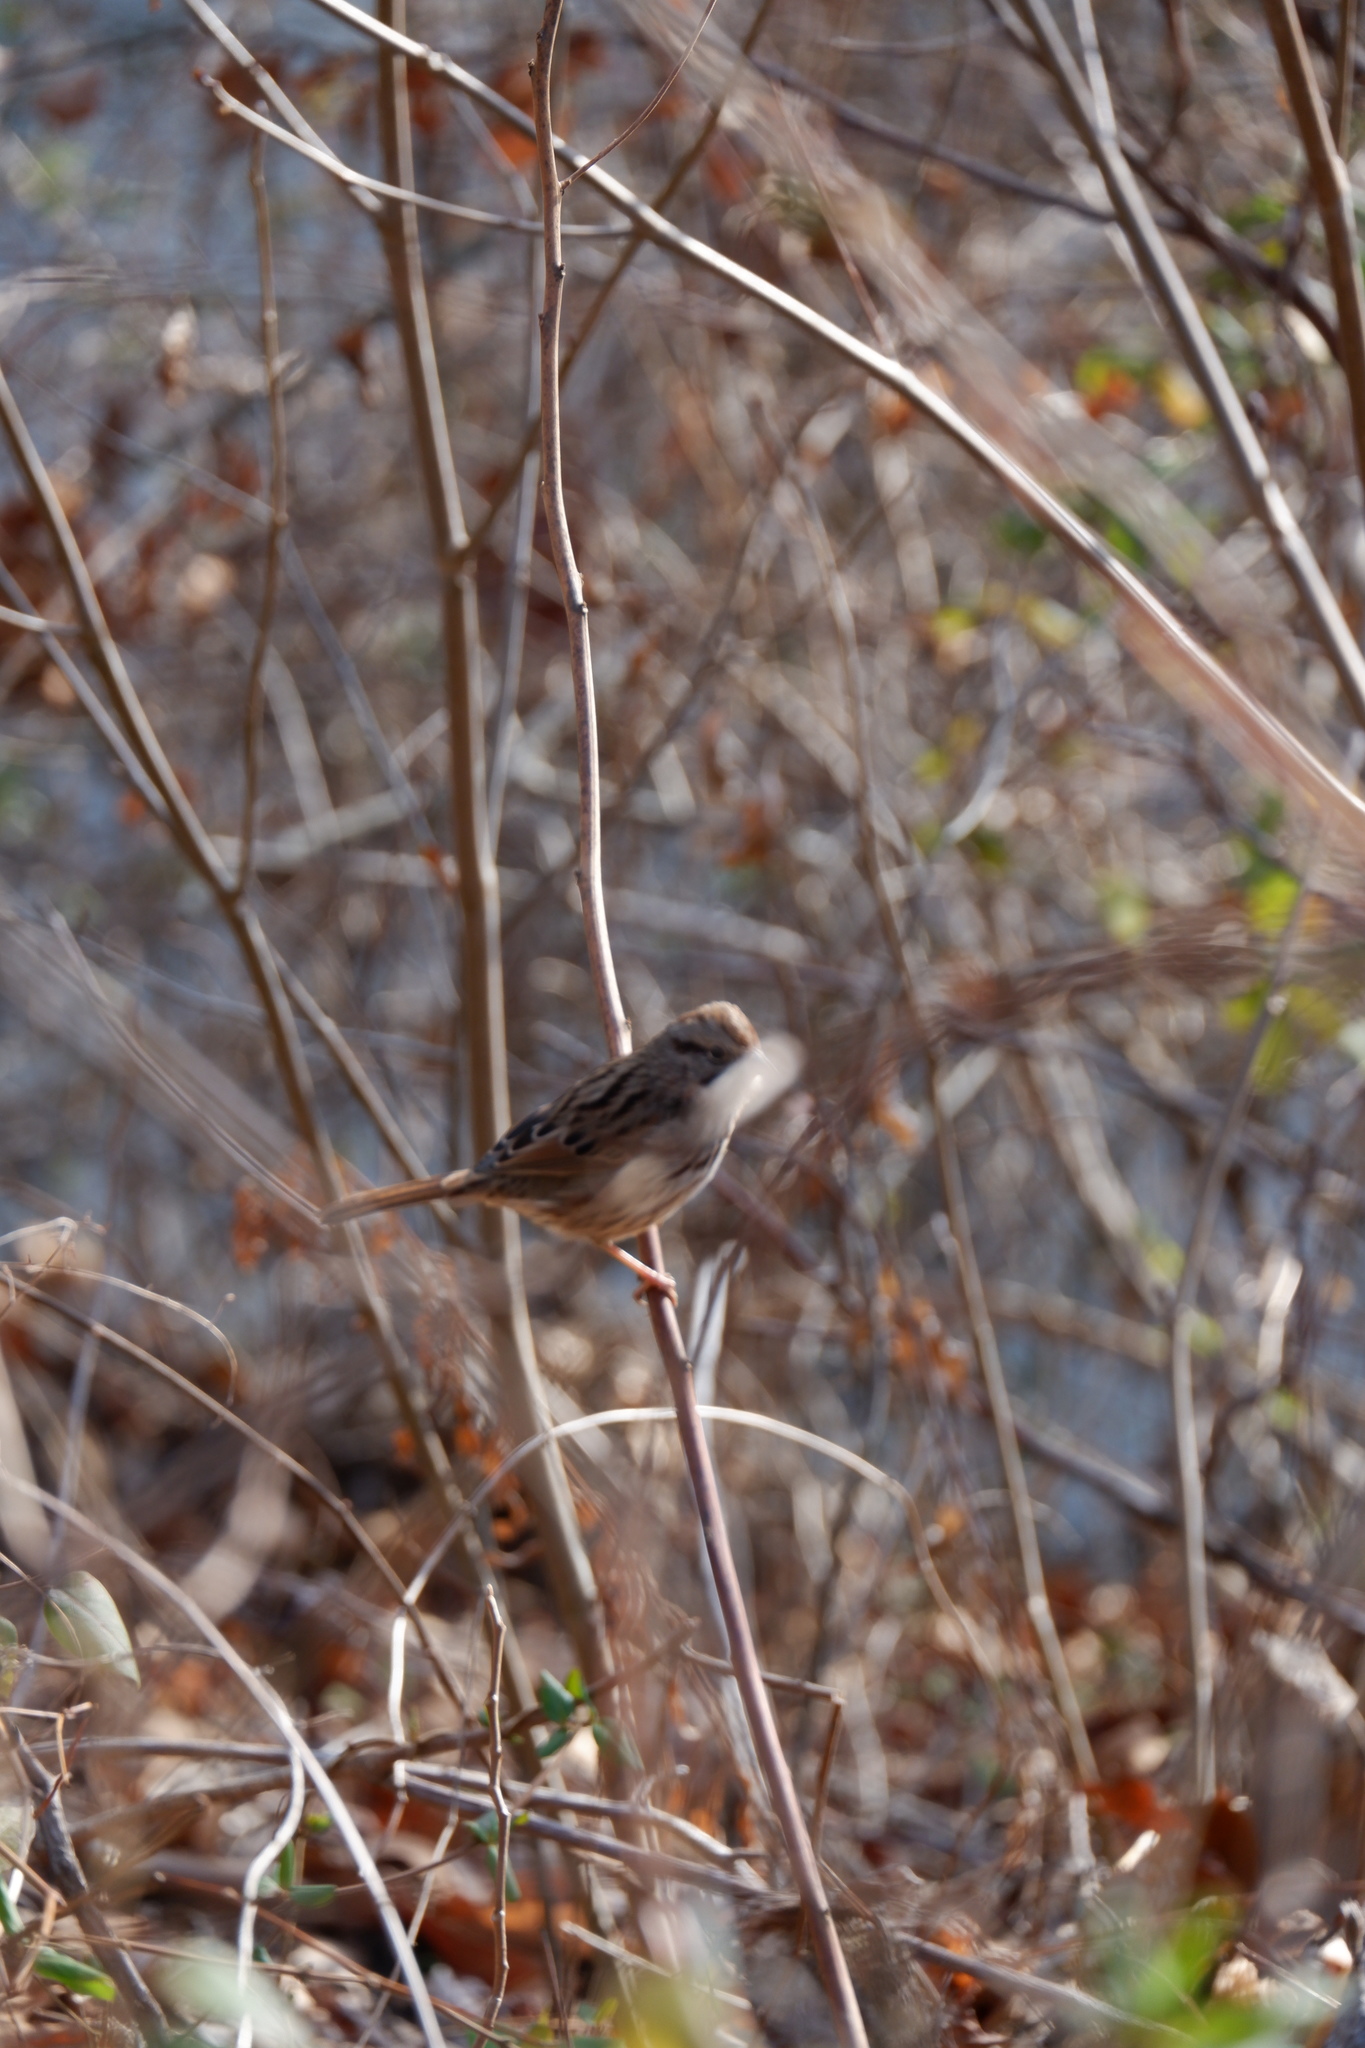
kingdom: Animalia
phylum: Chordata
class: Aves
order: Passeriformes
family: Passerellidae
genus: Melospiza
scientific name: Melospiza melodia
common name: Song sparrow
